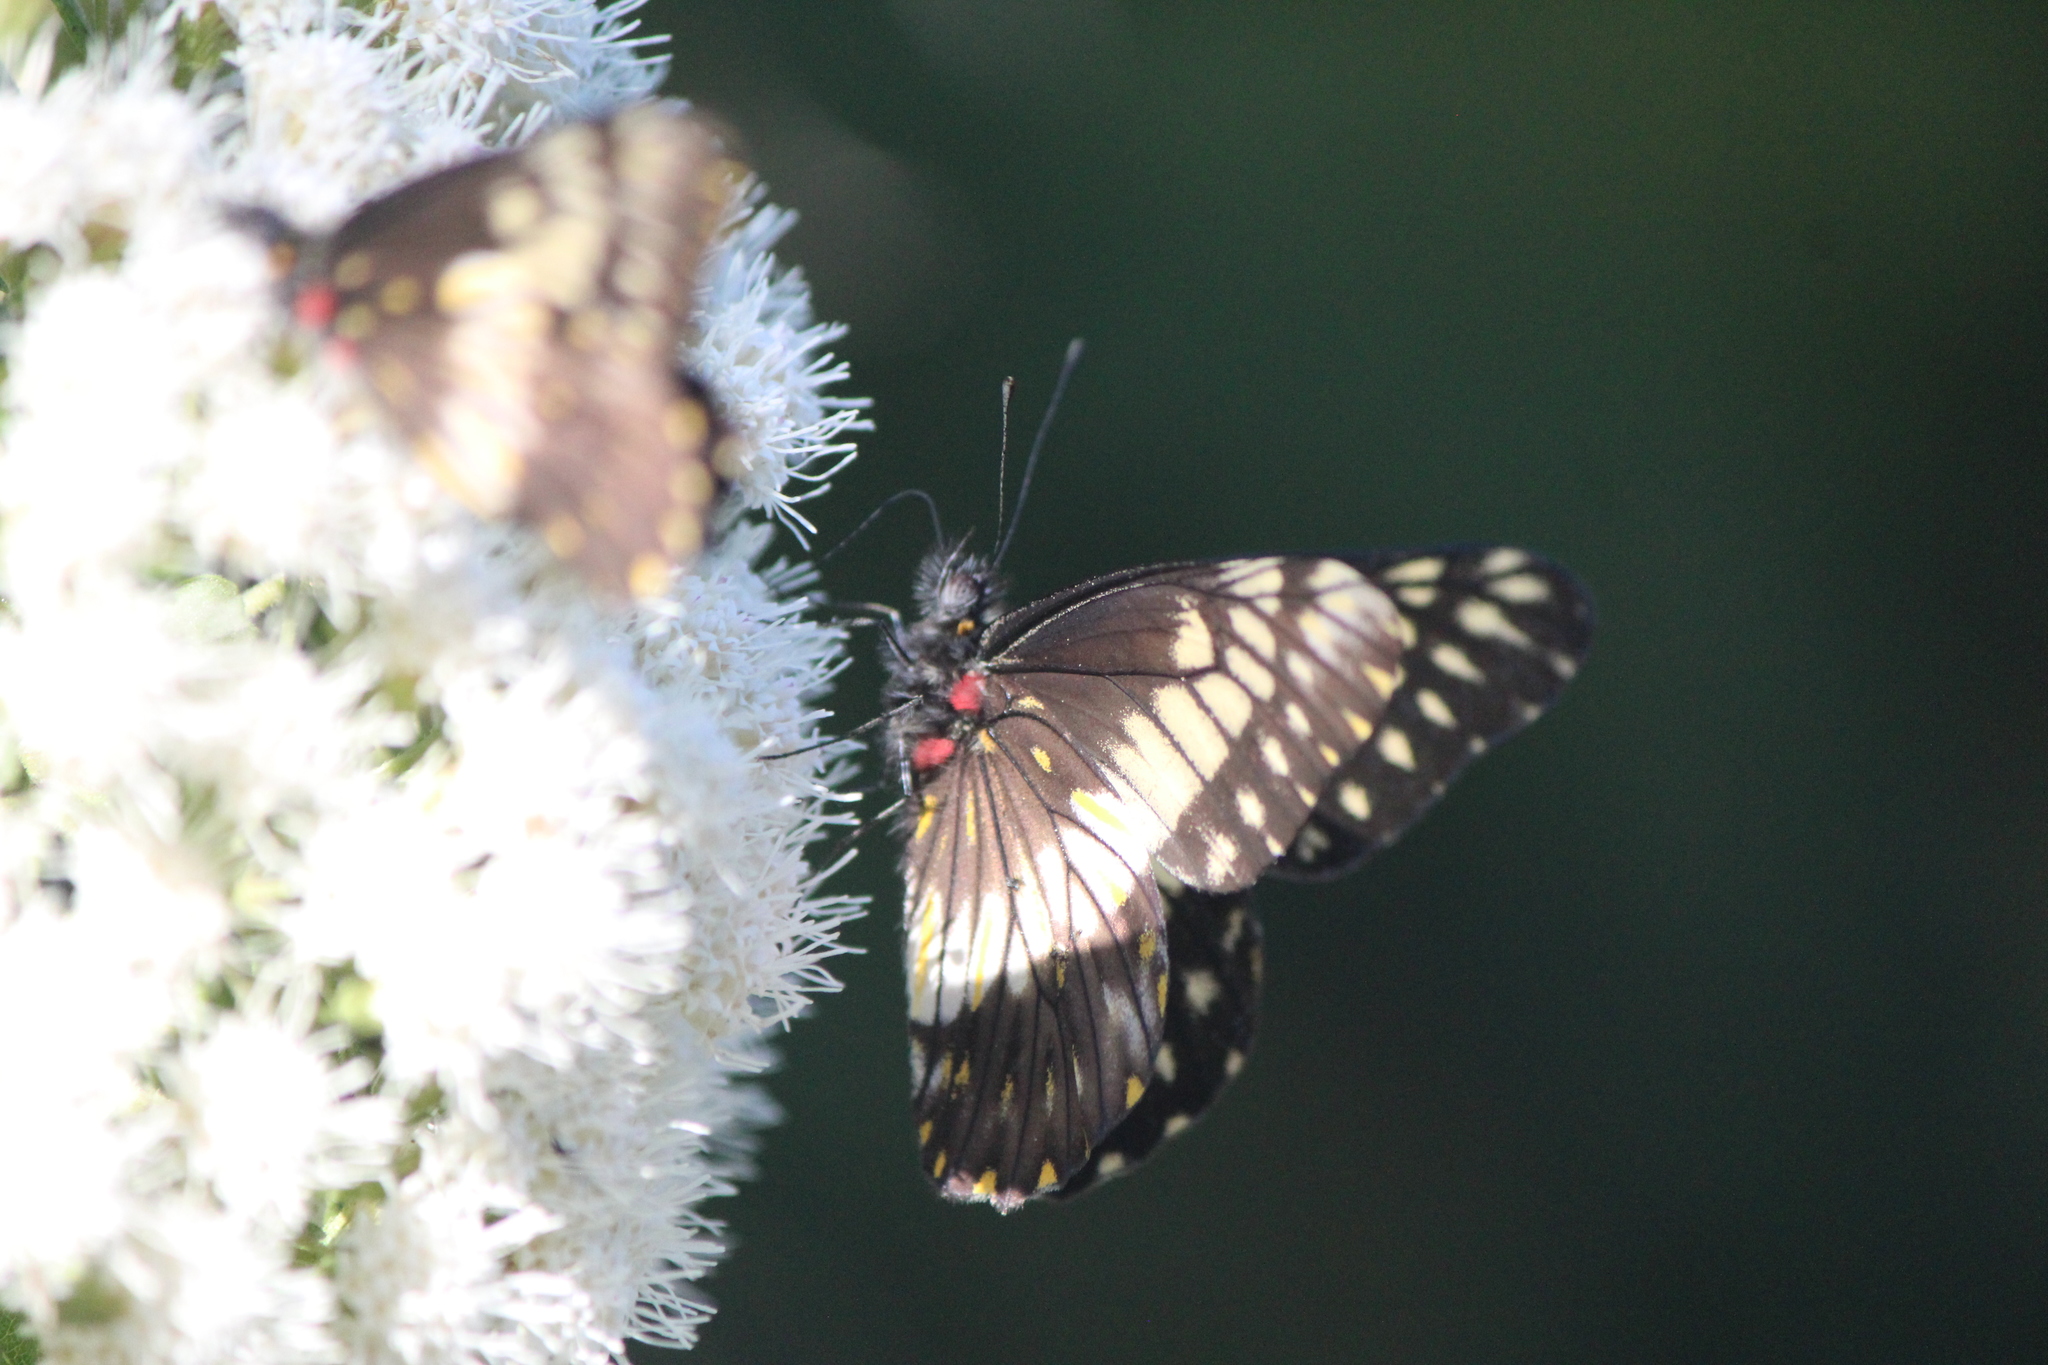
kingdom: Animalia
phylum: Arthropoda
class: Insecta
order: Lepidoptera
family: Pieridae
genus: Archonias
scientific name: Archonias nimbice
